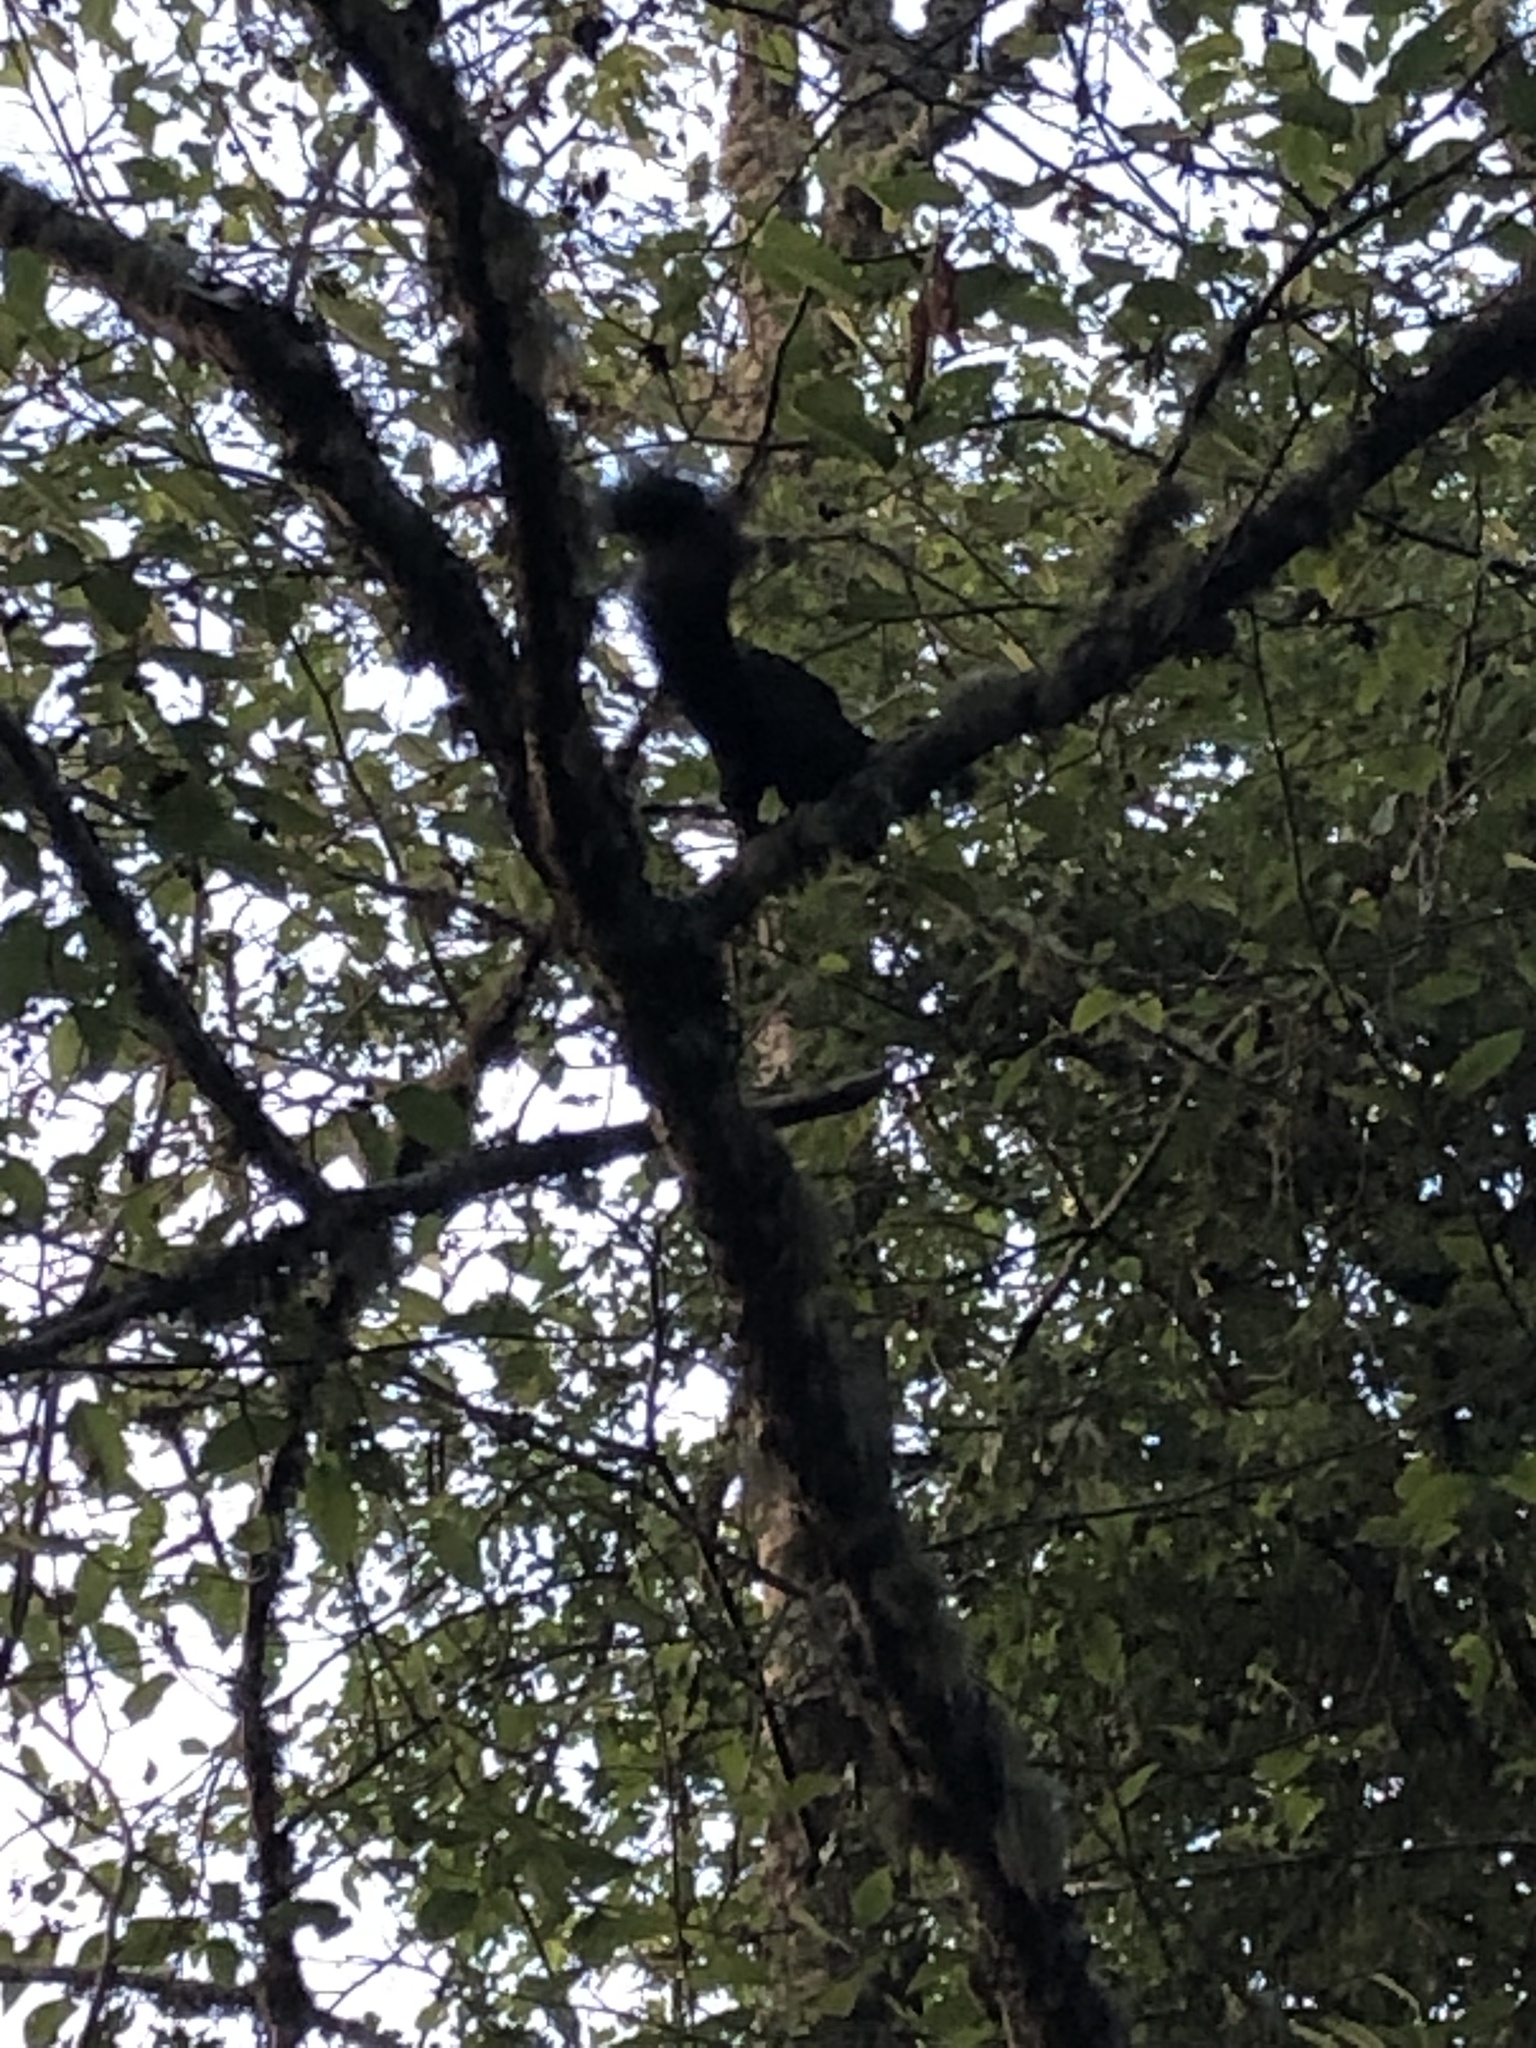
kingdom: Animalia
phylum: Chordata
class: Mammalia
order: Rodentia
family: Sciuridae
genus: Sciurus
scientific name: Sciurus carolinensis
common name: Eastern gray squirrel
